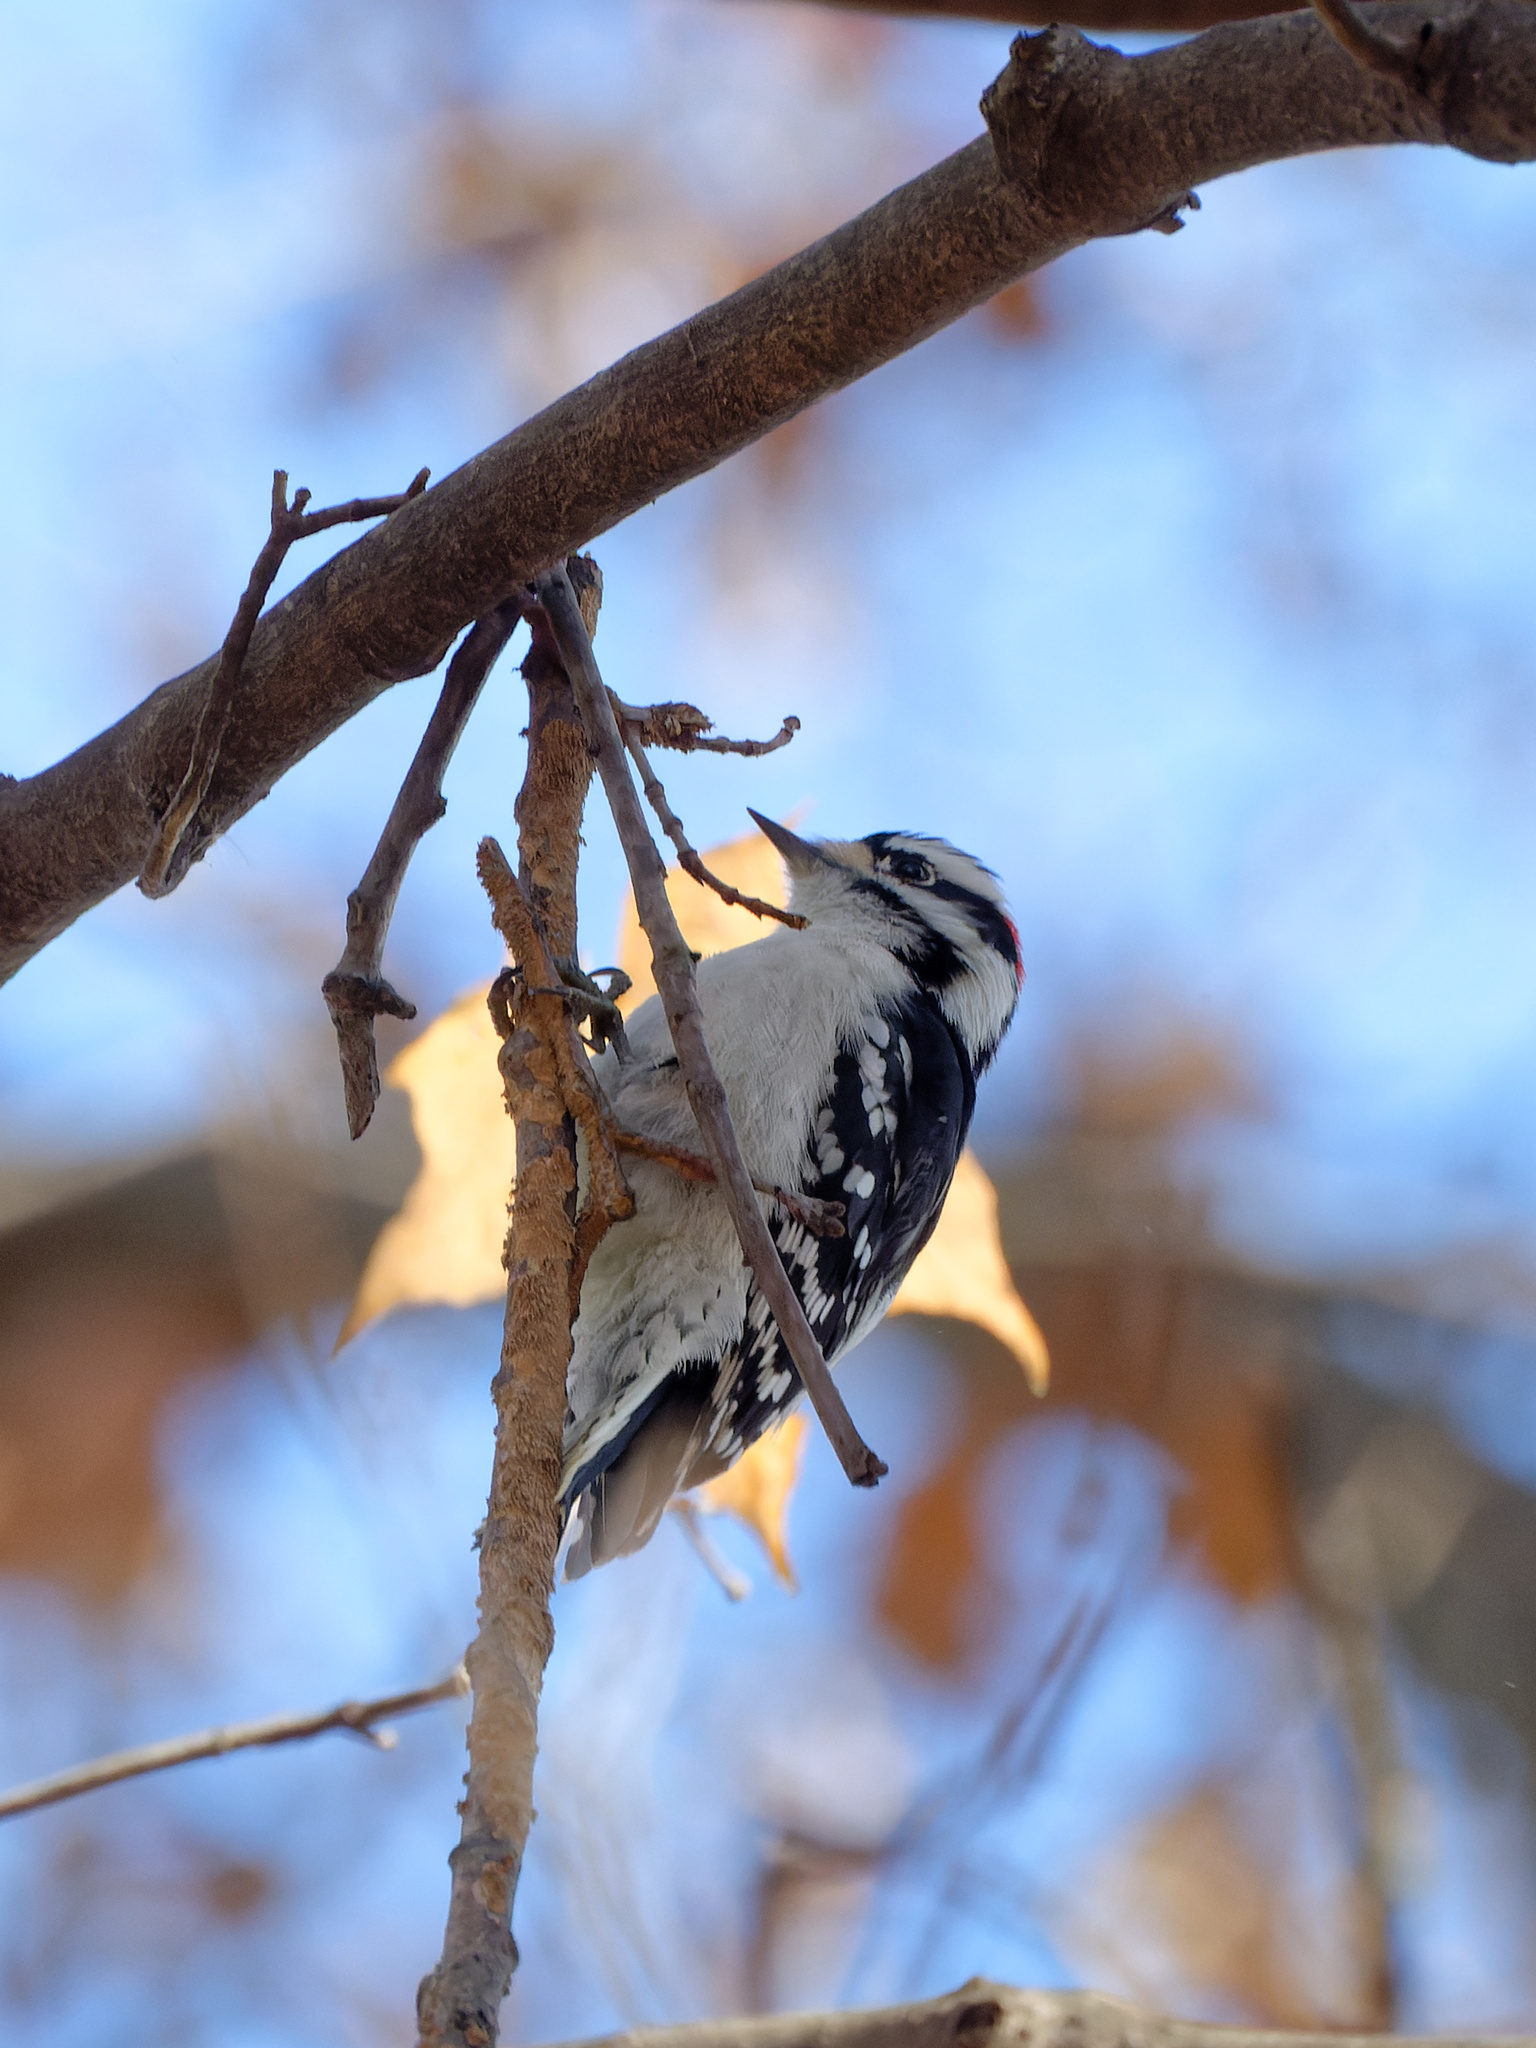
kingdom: Animalia
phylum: Chordata
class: Aves
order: Piciformes
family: Picidae
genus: Dryobates
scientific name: Dryobates pubescens
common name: Downy woodpecker
